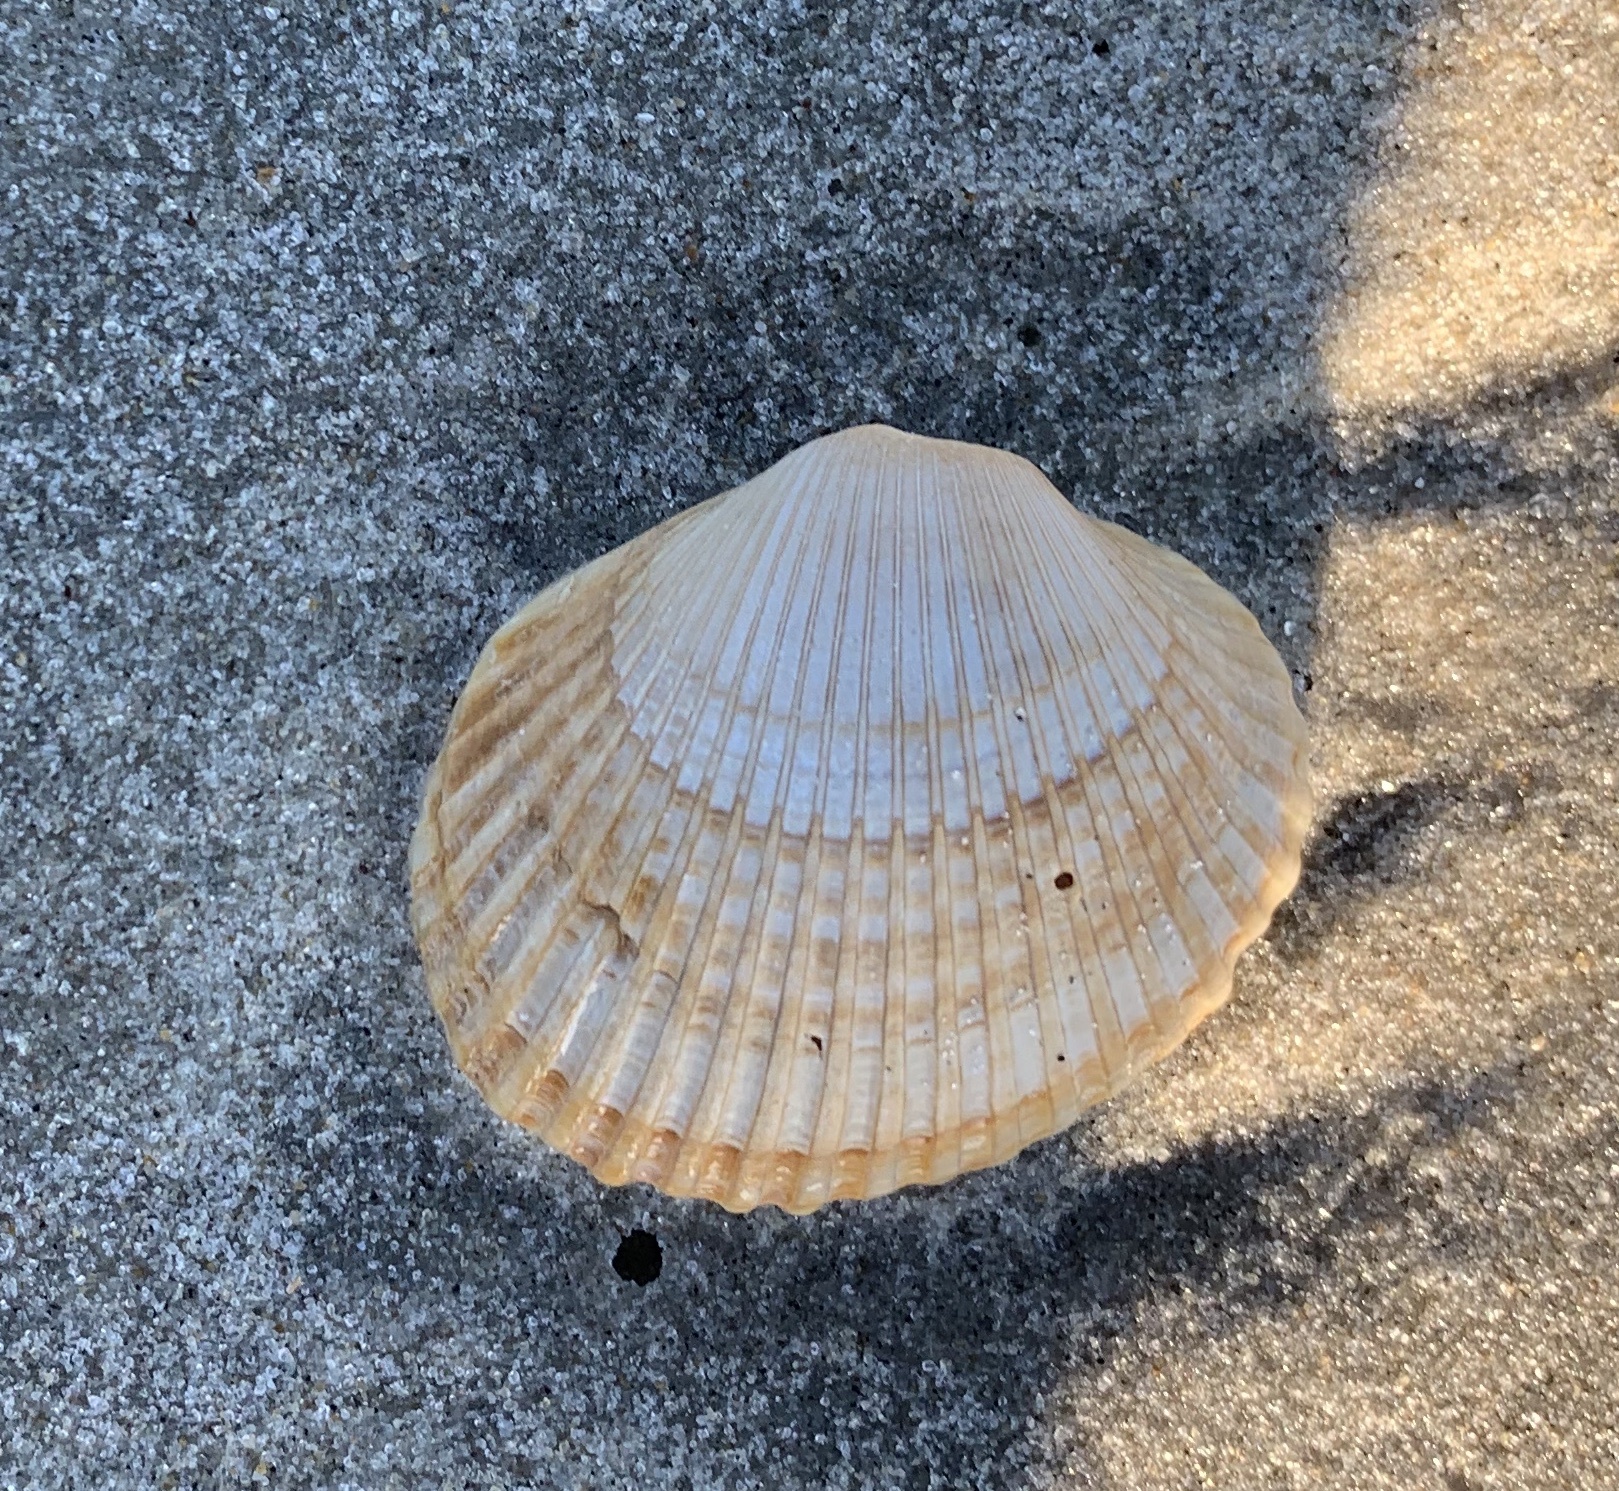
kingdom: Animalia
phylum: Mollusca
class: Bivalvia
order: Arcida
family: Arcidae
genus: Lunarca
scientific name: Lunarca ovalis
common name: Blood ark
